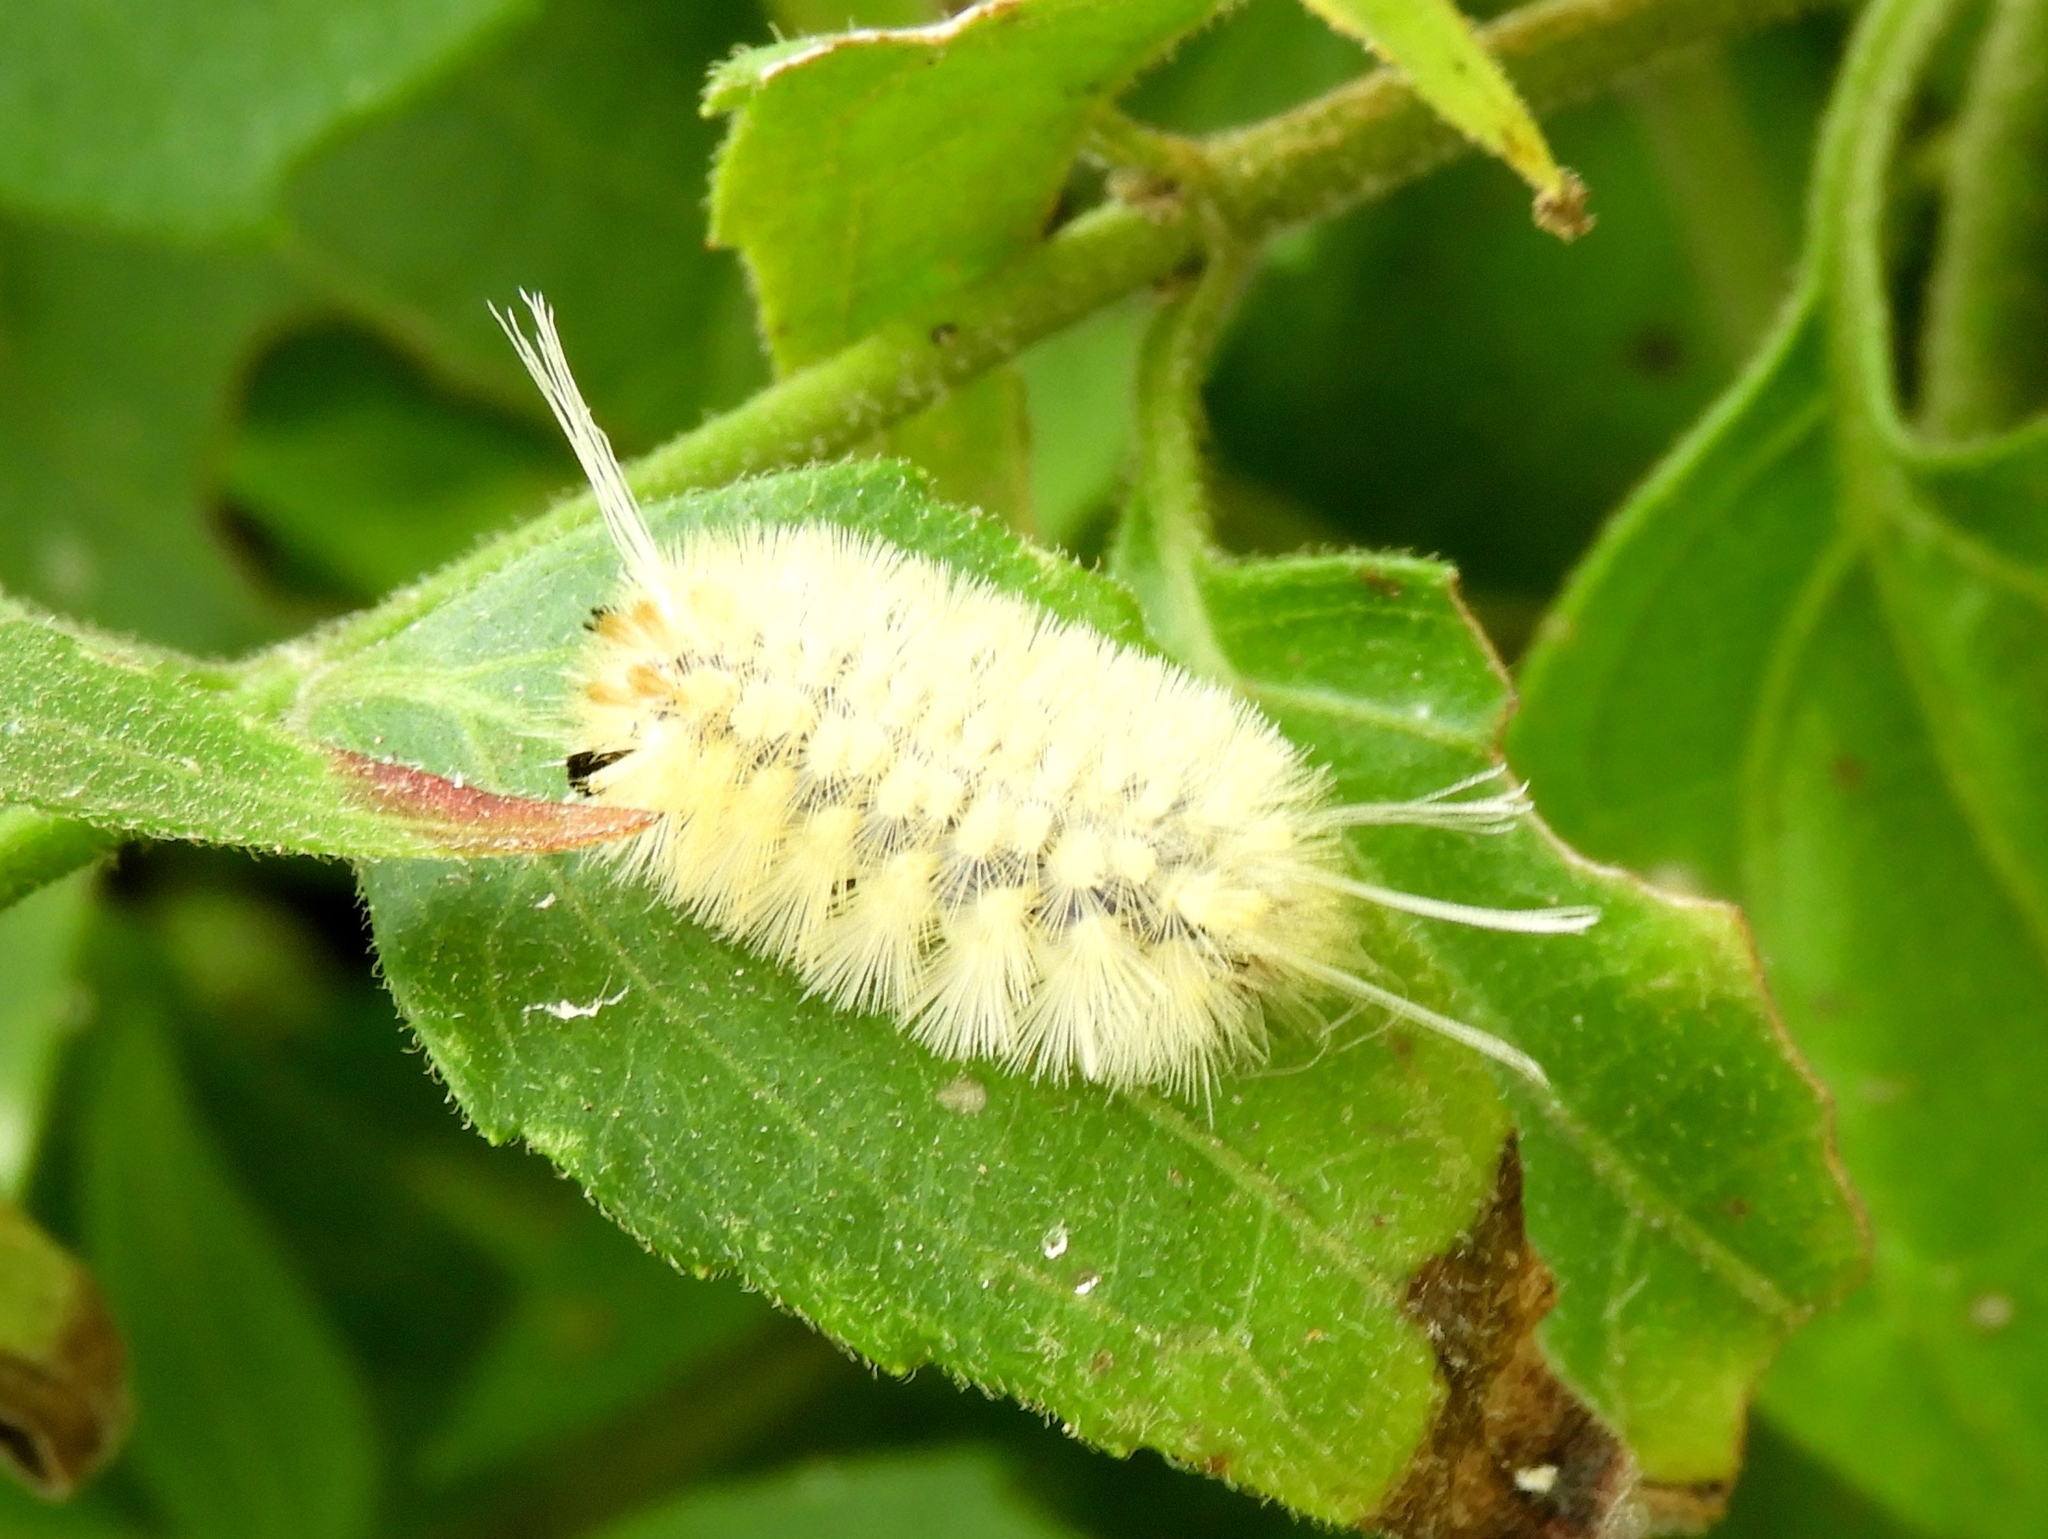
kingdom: Animalia
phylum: Arthropoda
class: Insecta
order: Lepidoptera
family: Erebidae
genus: Lophocampa
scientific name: Lophocampa annulosa
